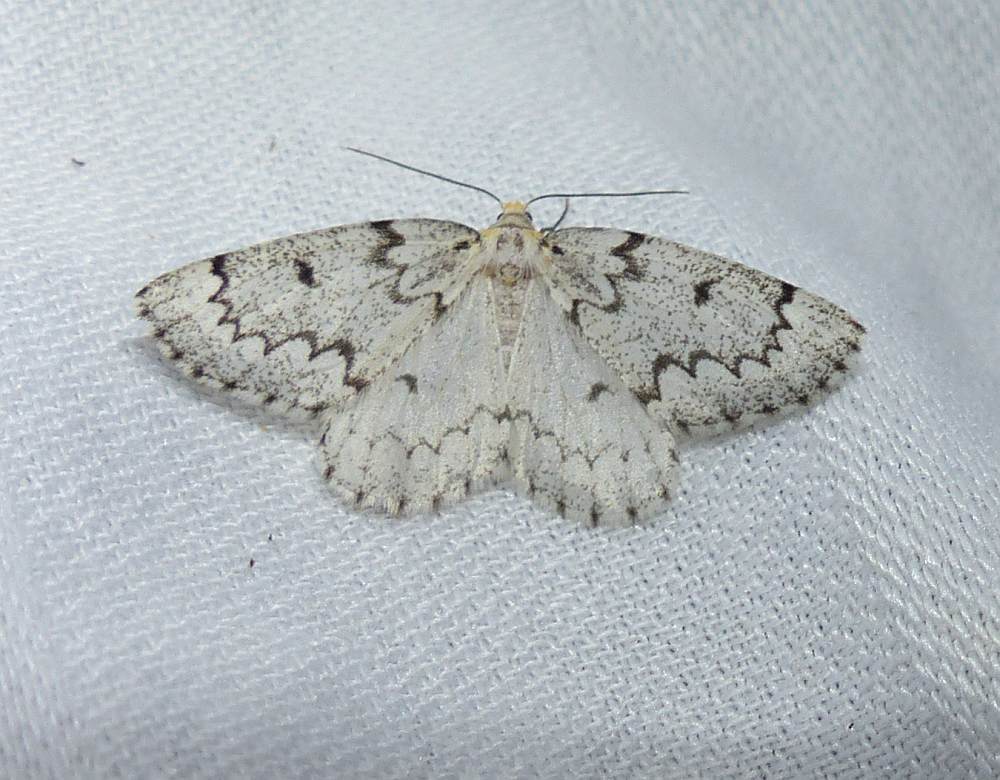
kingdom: Animalia
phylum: Arthropoda
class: Insecta
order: Lepidoptera
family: Geometridae
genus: Nepytia
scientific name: Nepytia canosaria
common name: False hemlock looper
